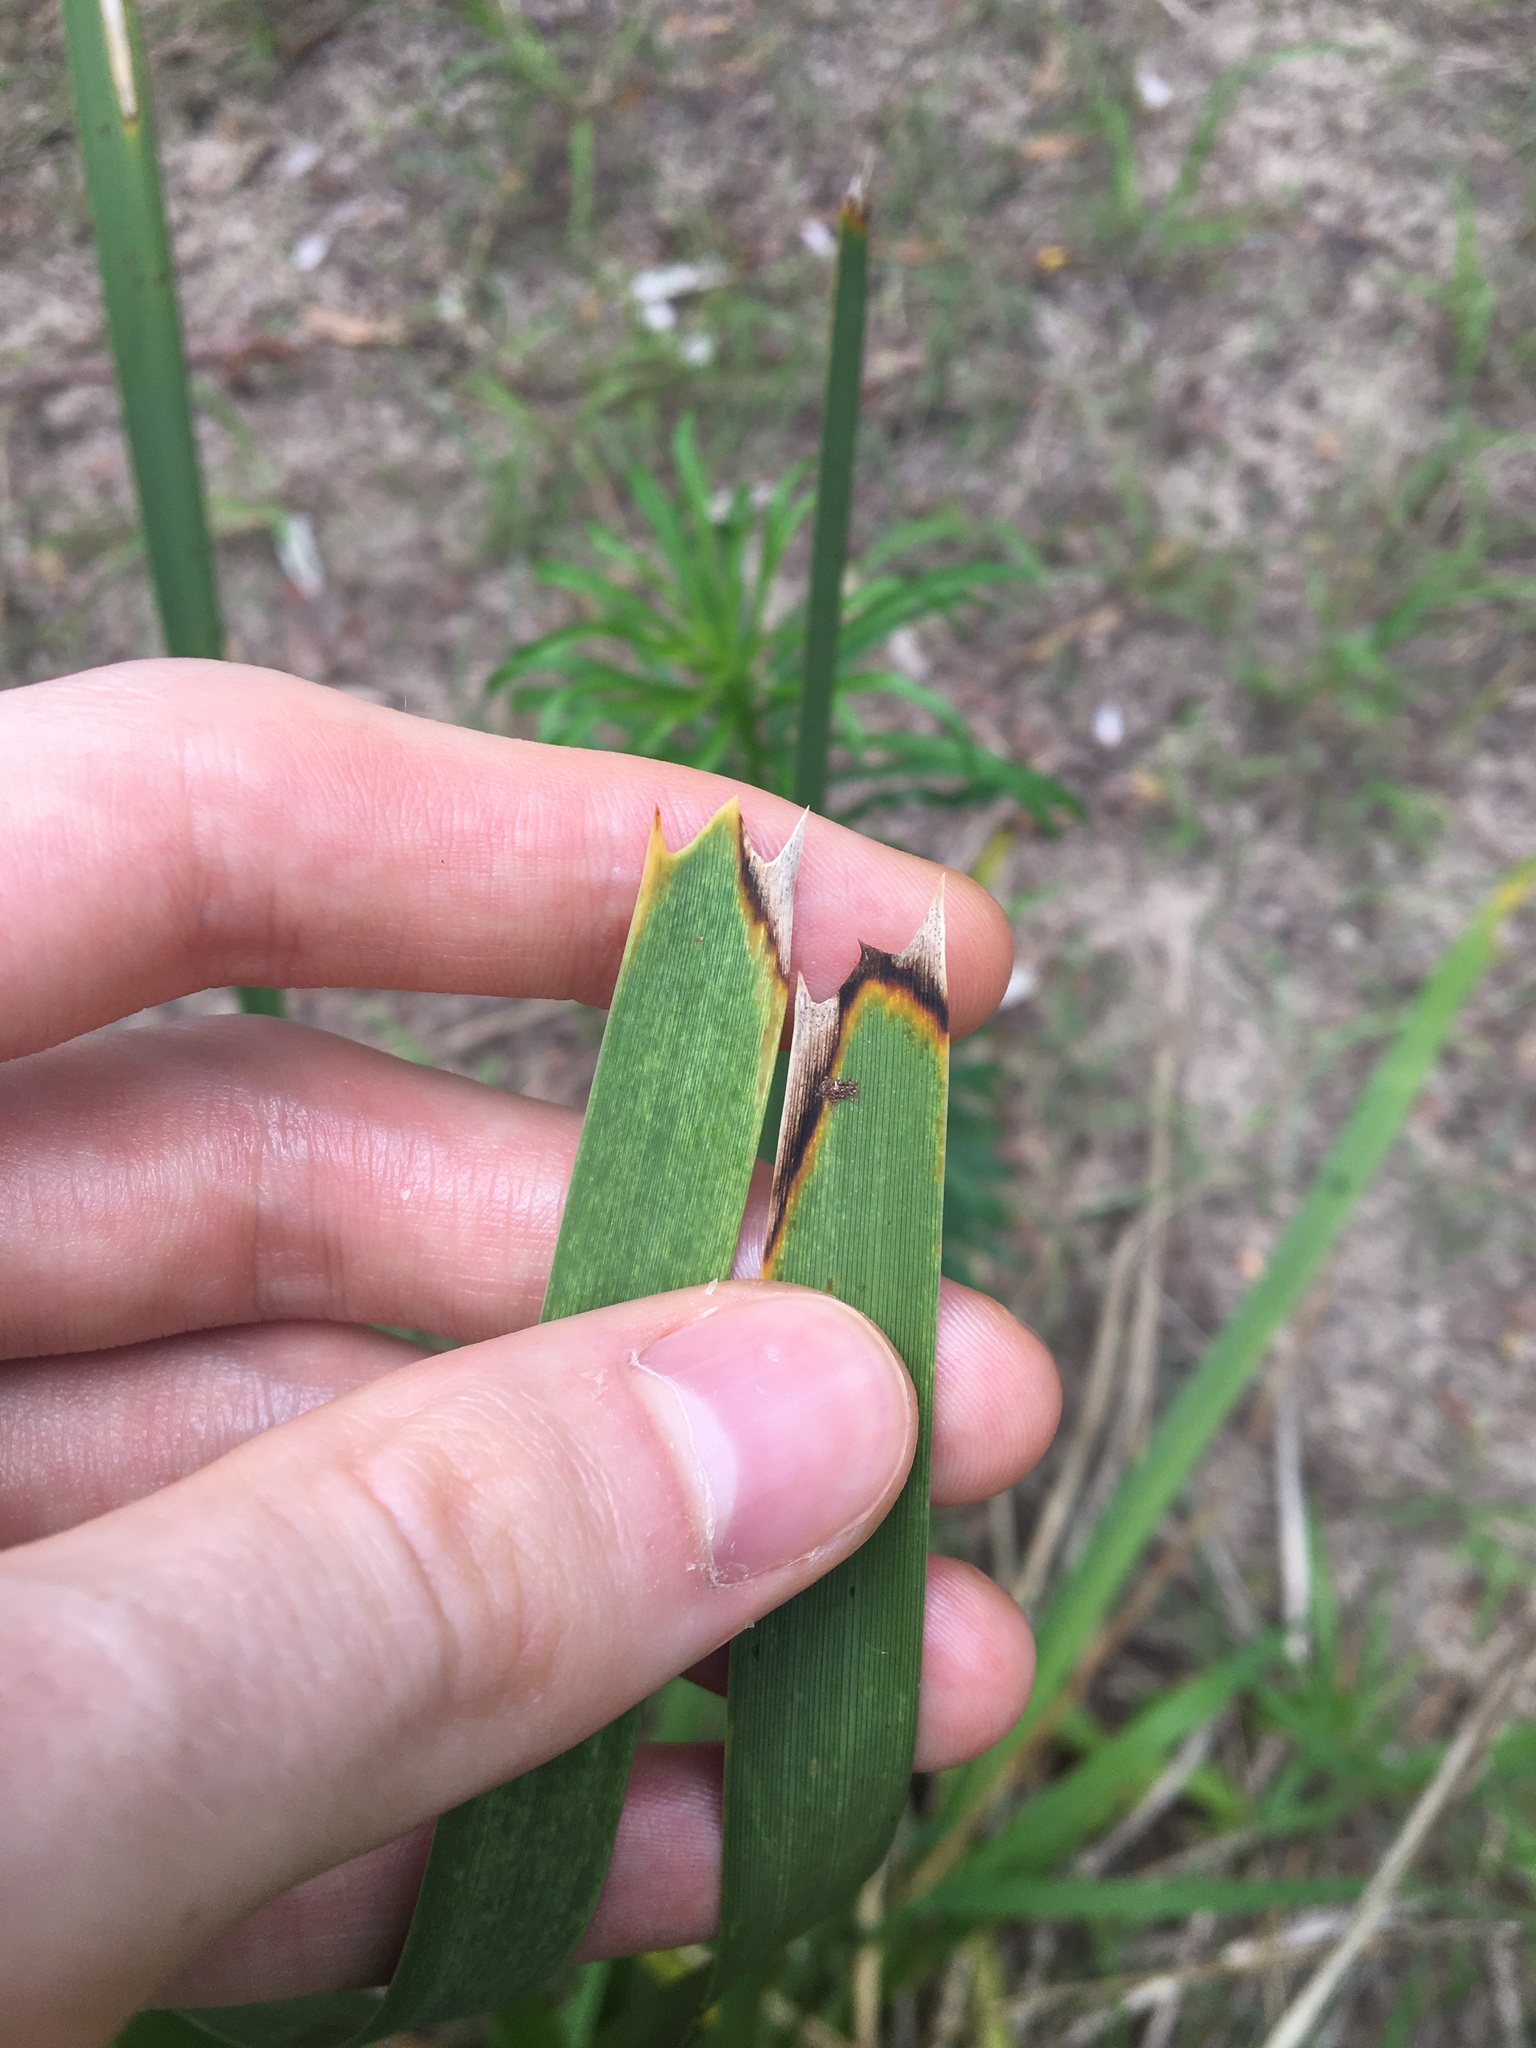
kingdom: Plantae
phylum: Tracheophyta
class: Liliopsida
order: Asparagales
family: Asparagaceae
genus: Lomandra
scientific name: Lomandra longifolia
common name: Longleaf mat-rush
